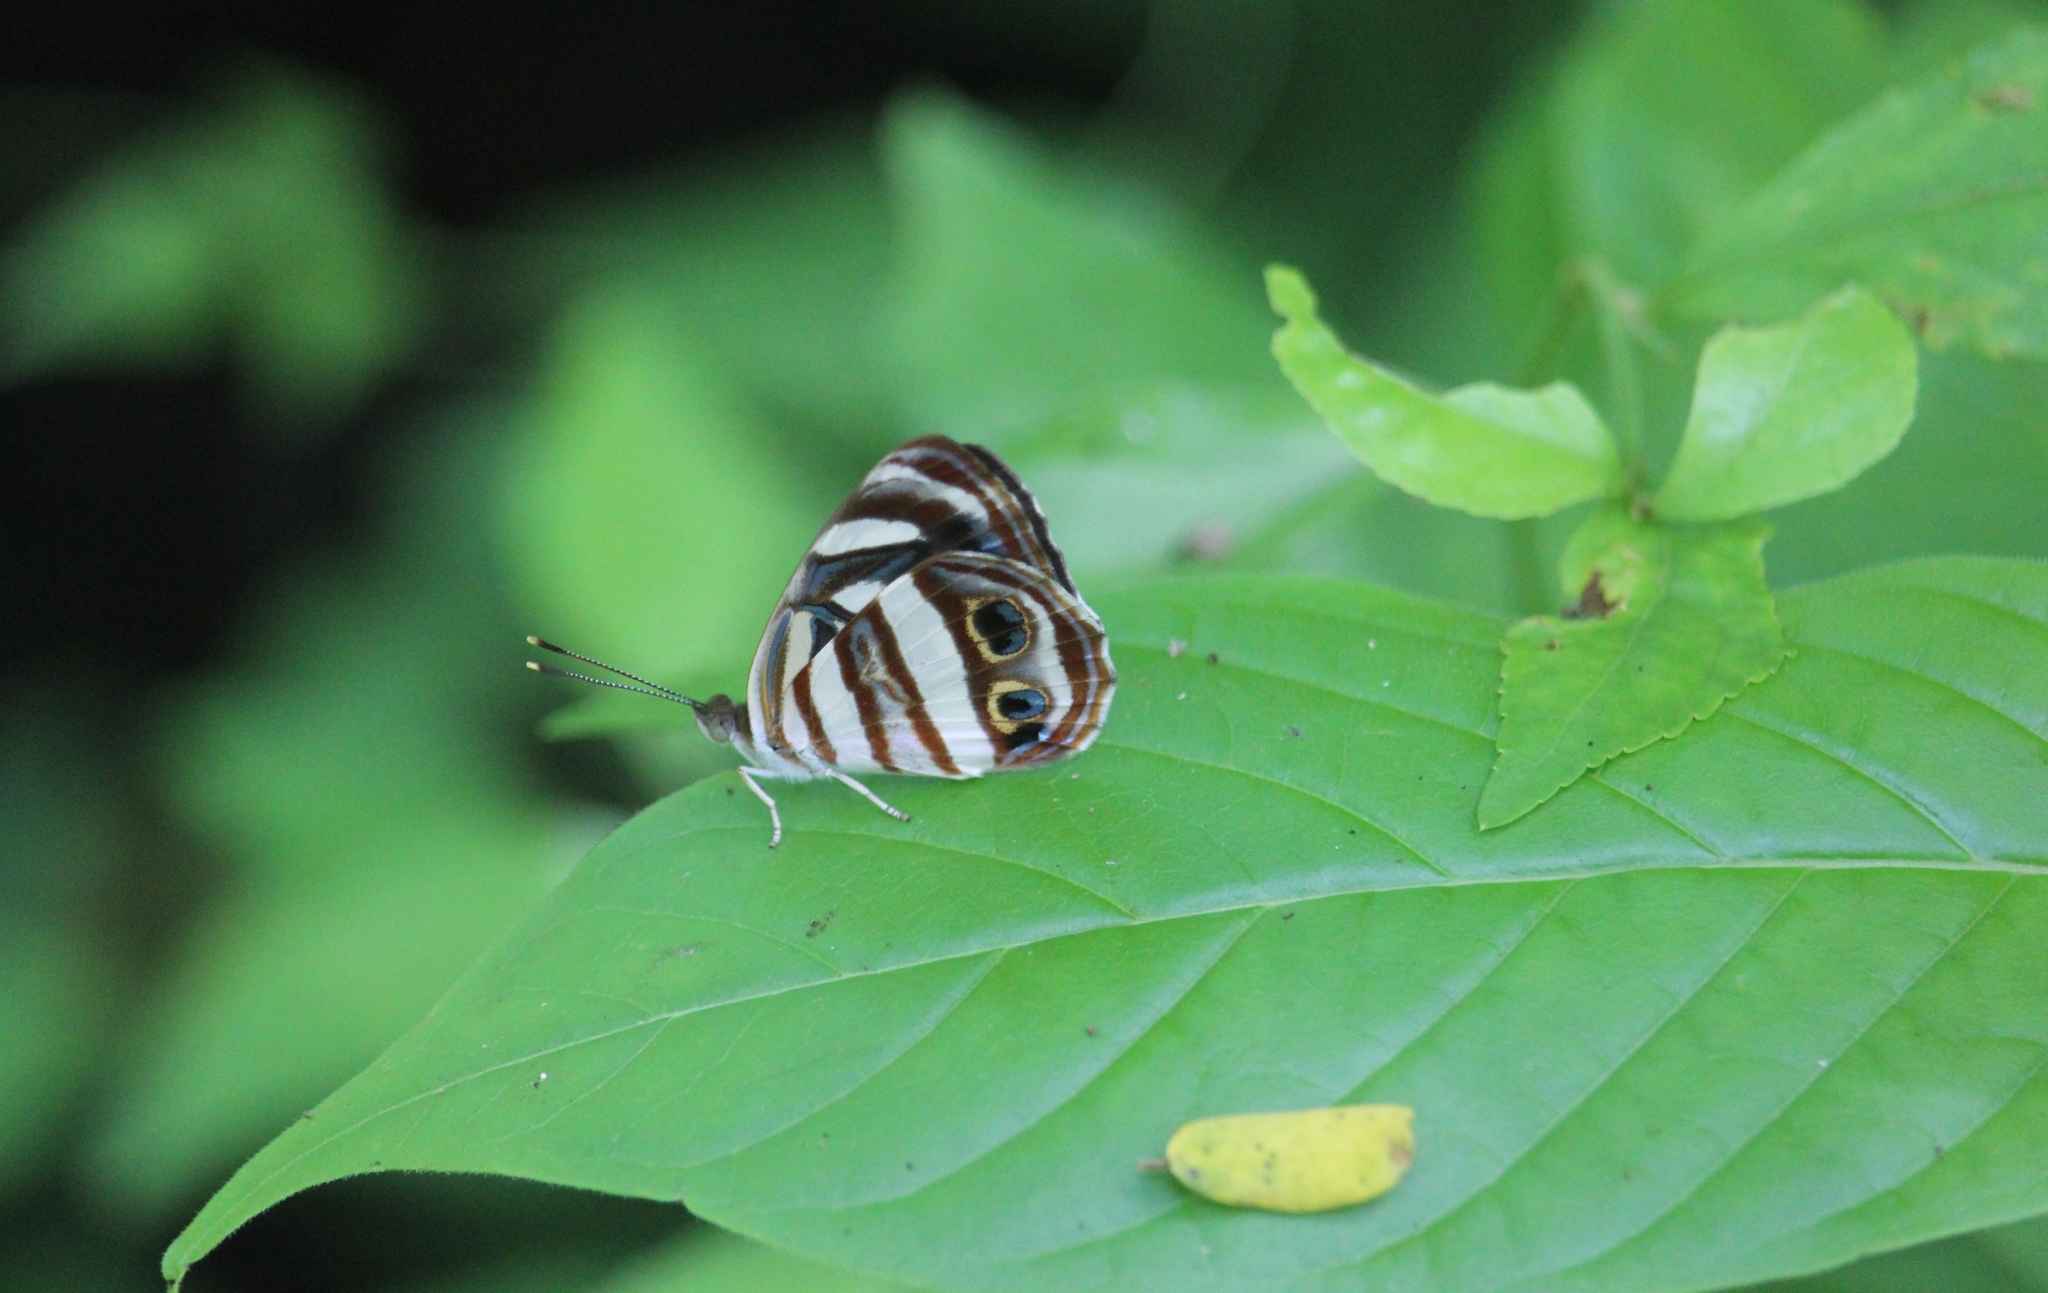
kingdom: Animalia
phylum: Arthropoda
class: Insecta
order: Lepidoptera
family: Nymphalidae
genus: Dynamine
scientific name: Dynamine mylitta
